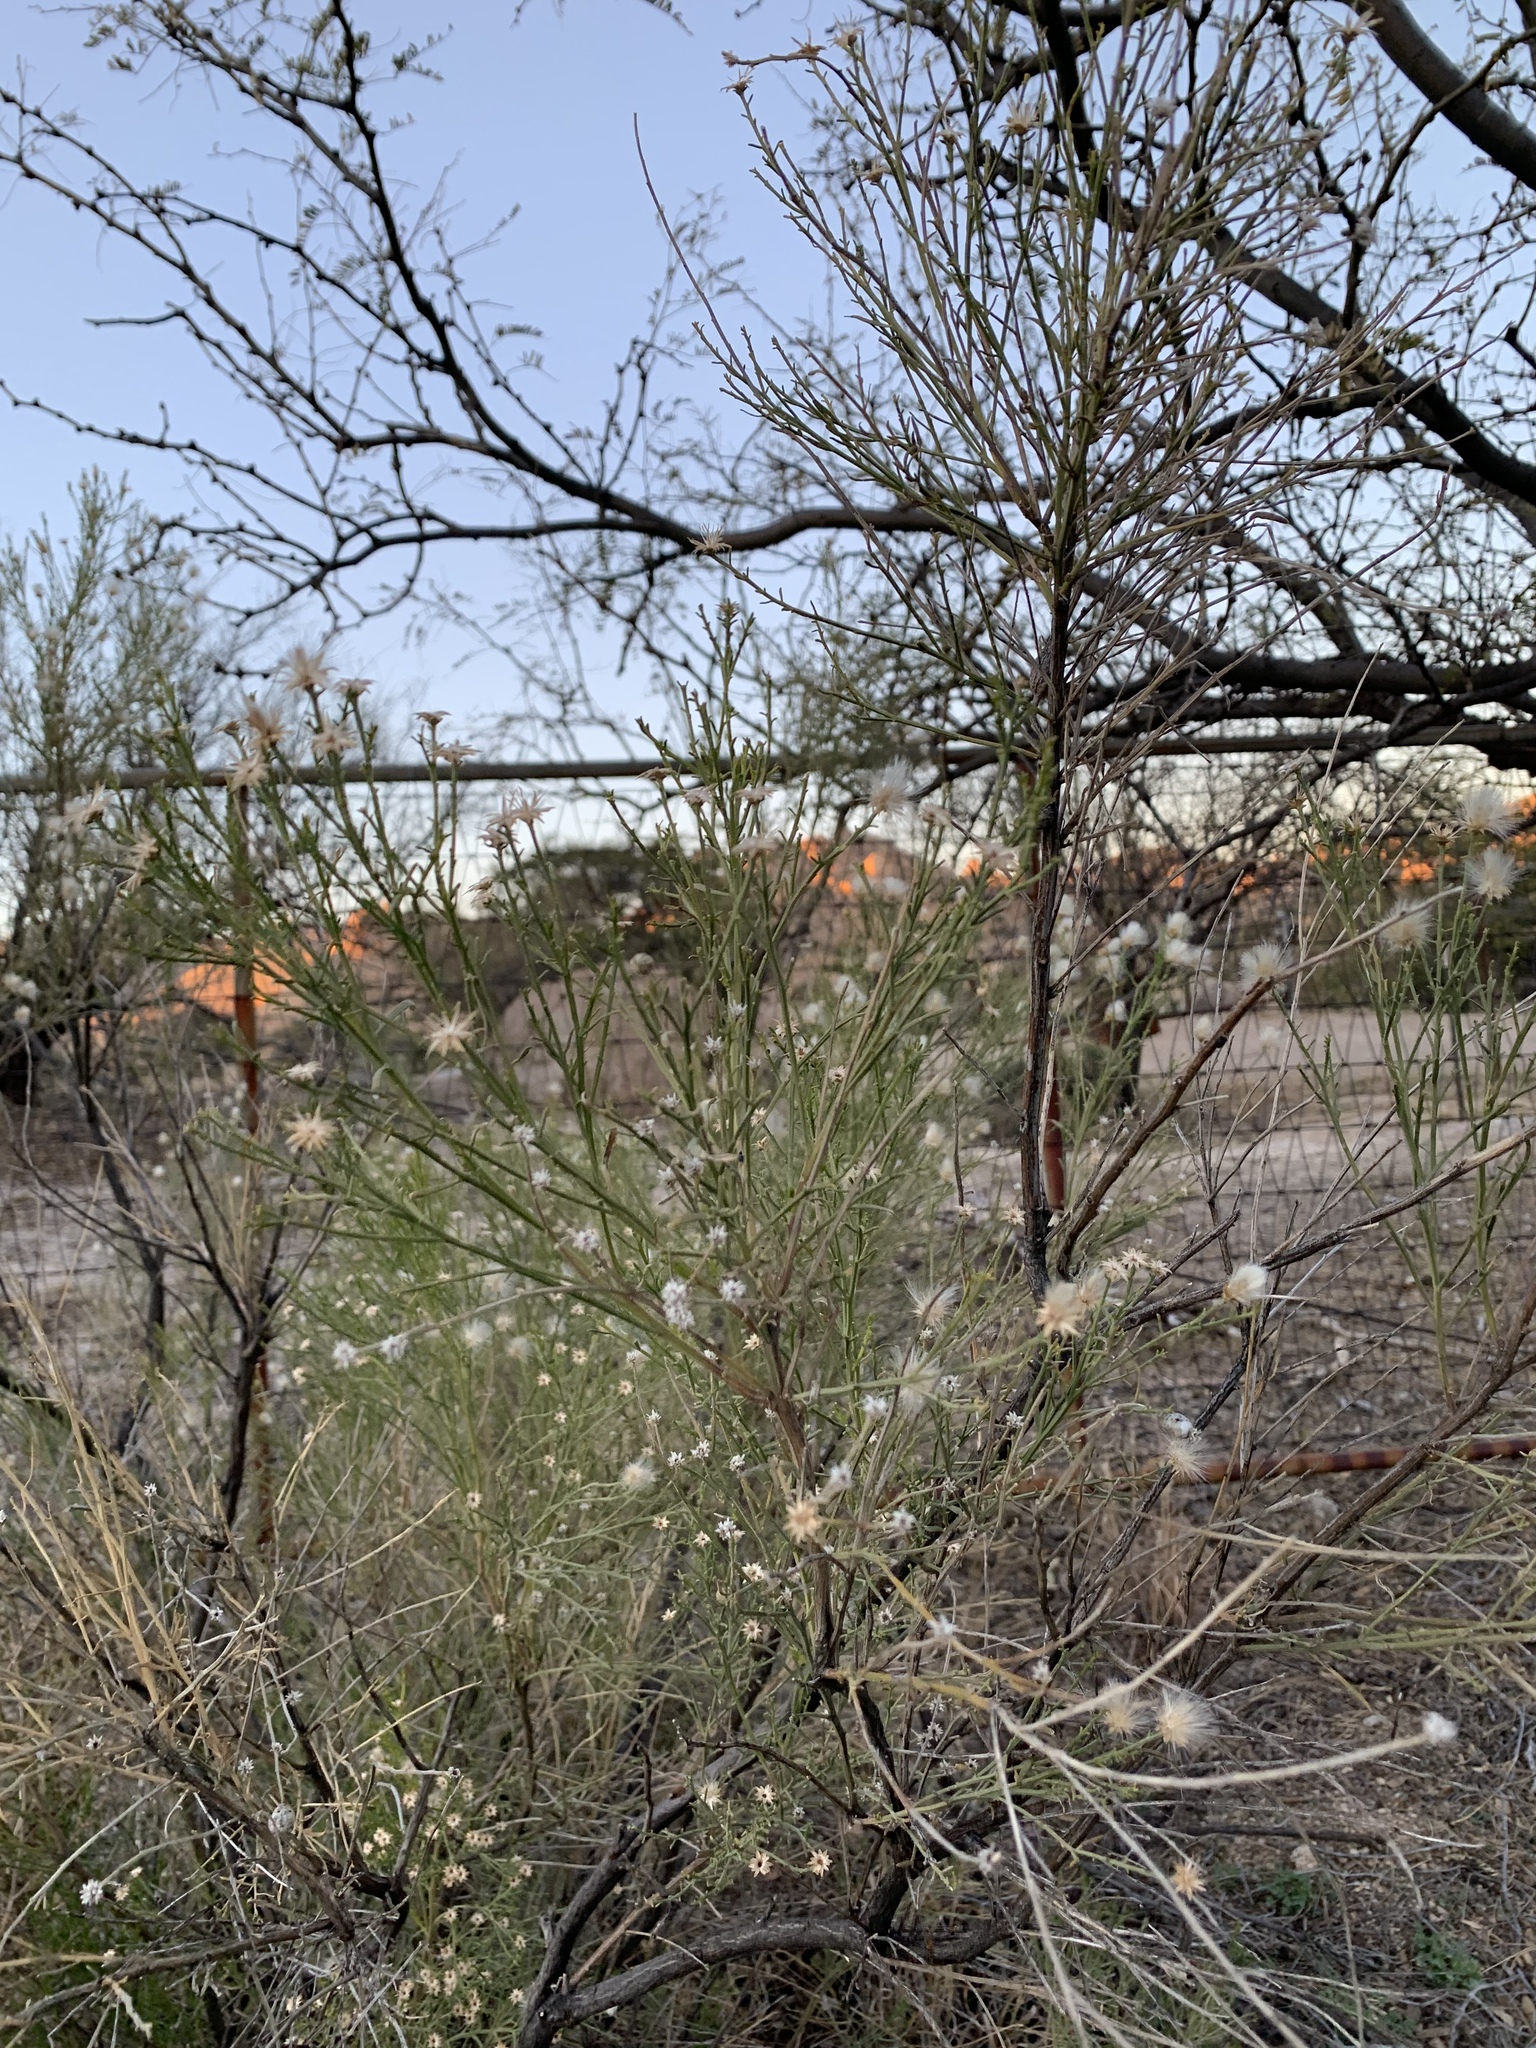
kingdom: Plantae
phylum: Tracheophyta
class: Magnoliopsida
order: Asterales
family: Asteraceae
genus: Baccharis
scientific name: Baccharis sarothroides
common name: Desert-broom
